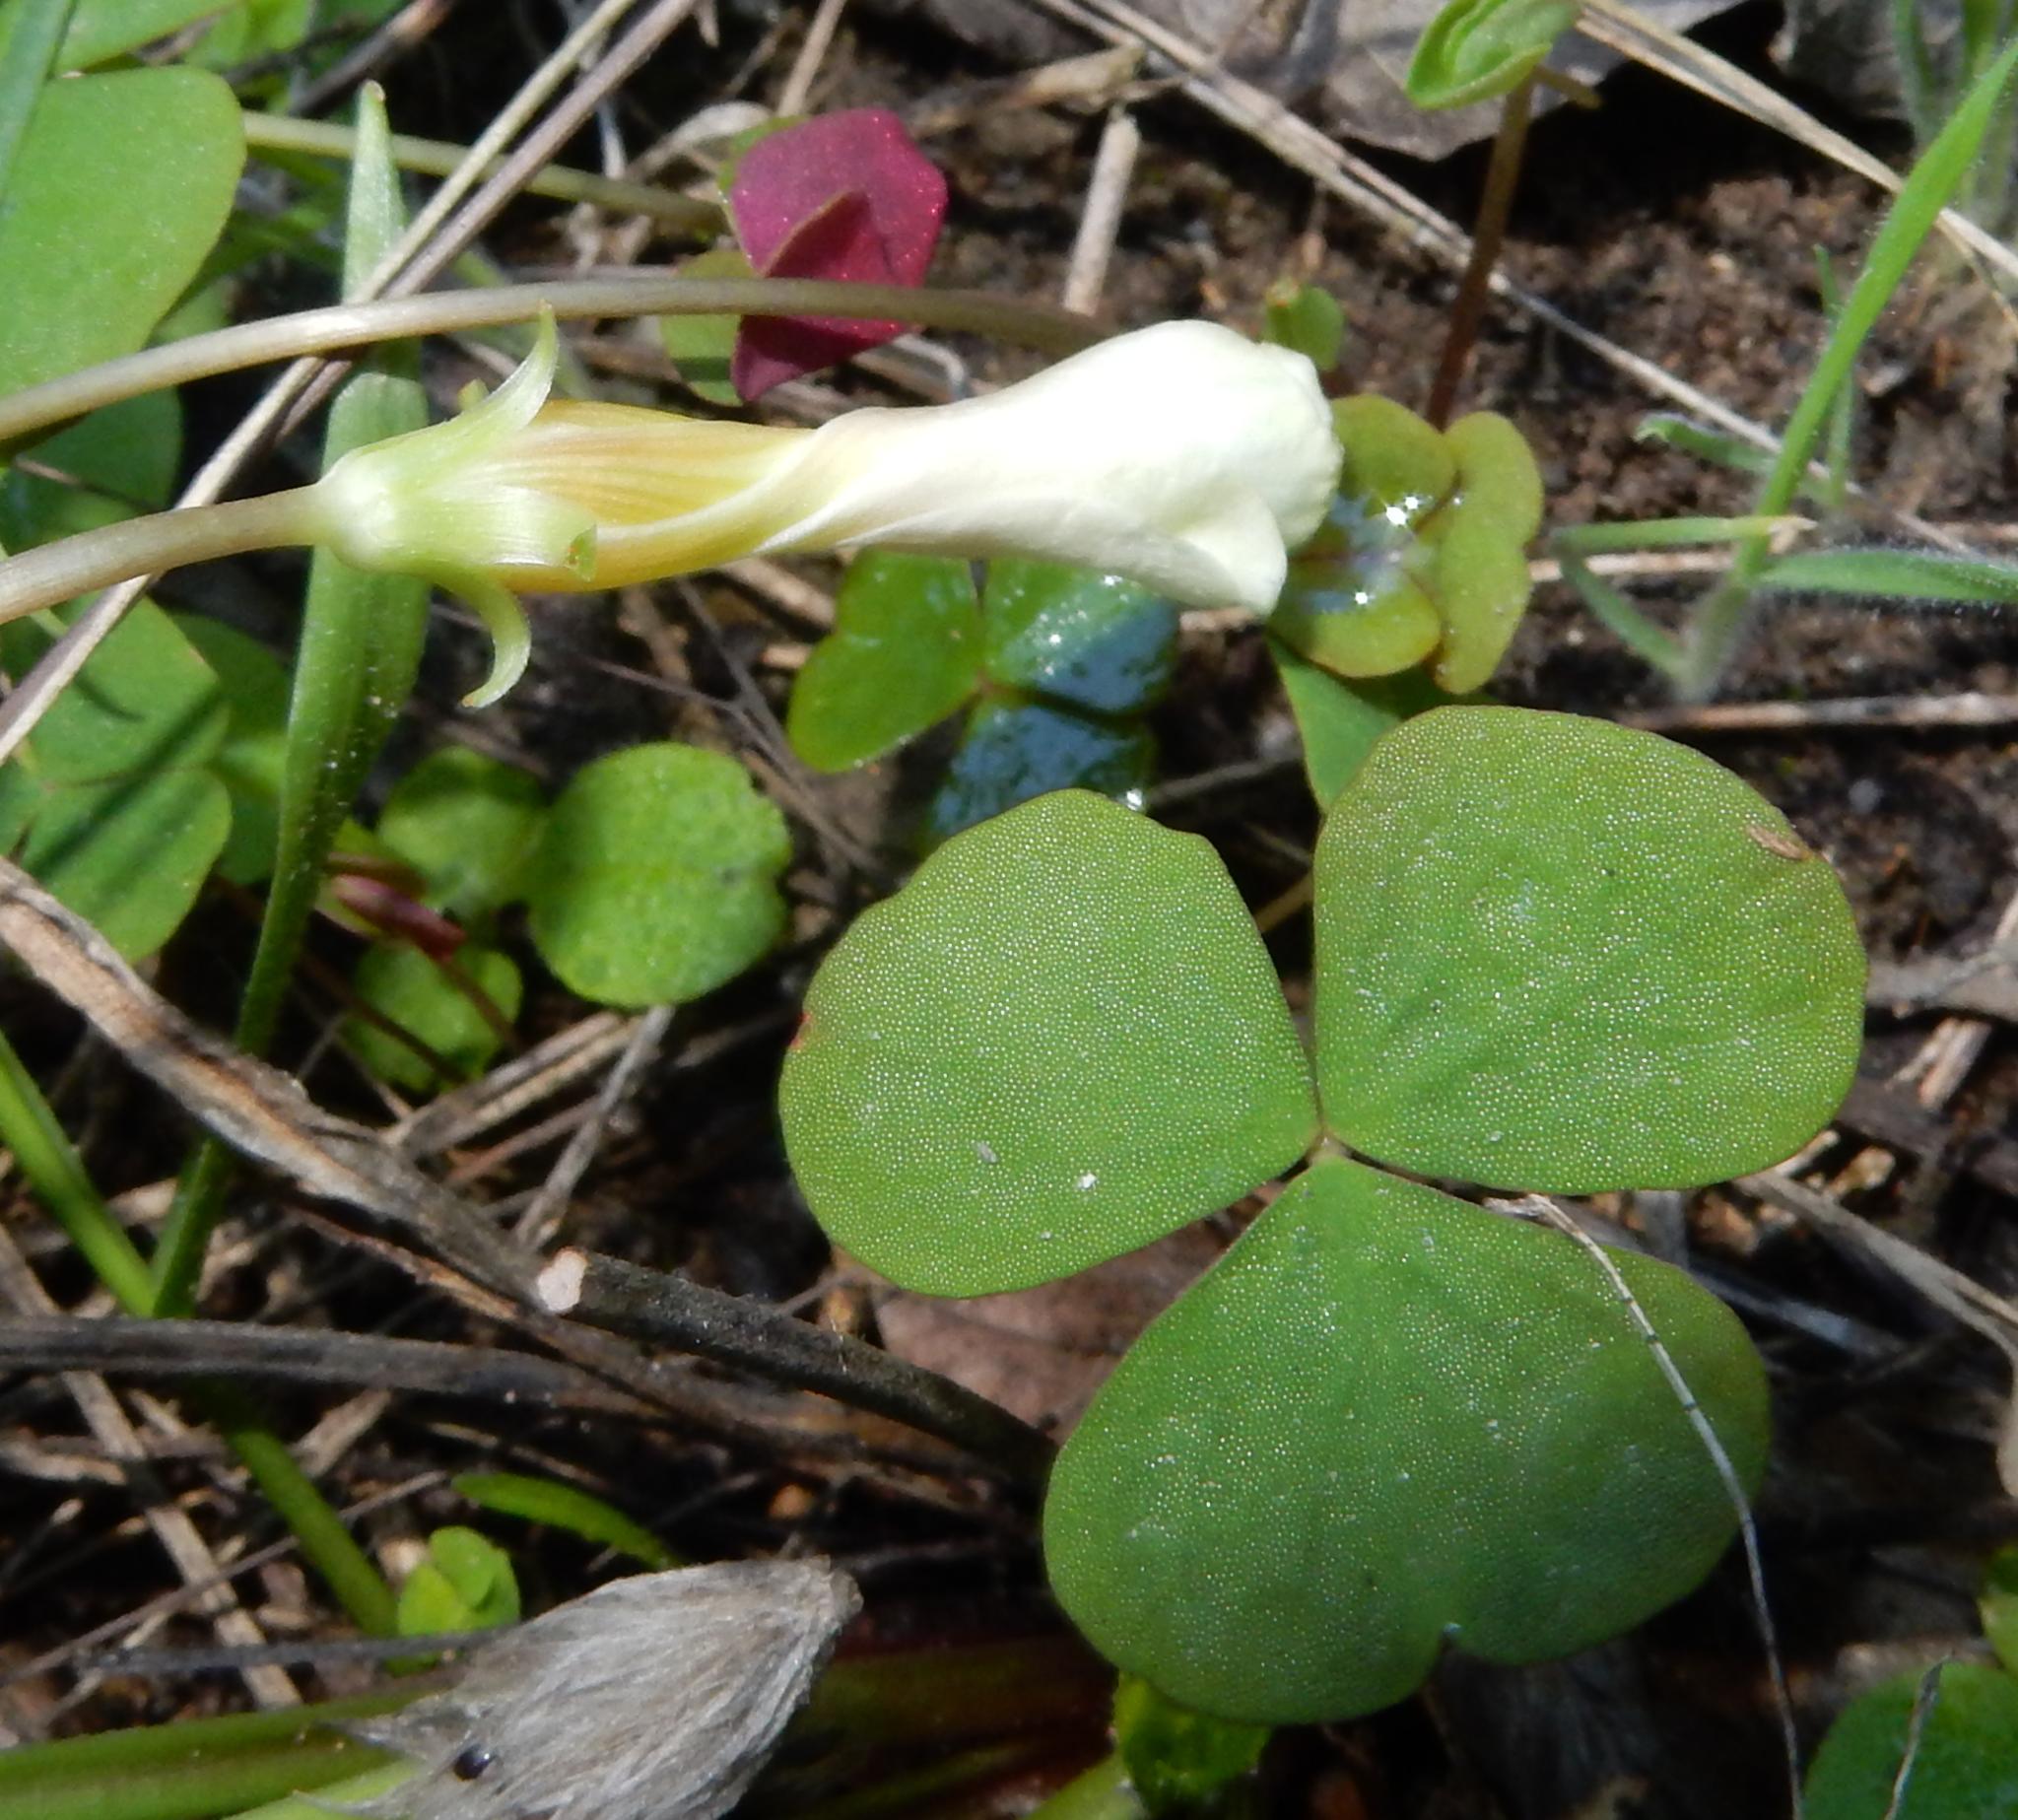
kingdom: Plantae
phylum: Tracheophyta
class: Magnoliopsida
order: Oxalidales
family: Oxalidaceae
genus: Oxalis
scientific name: Oxalis depressa
